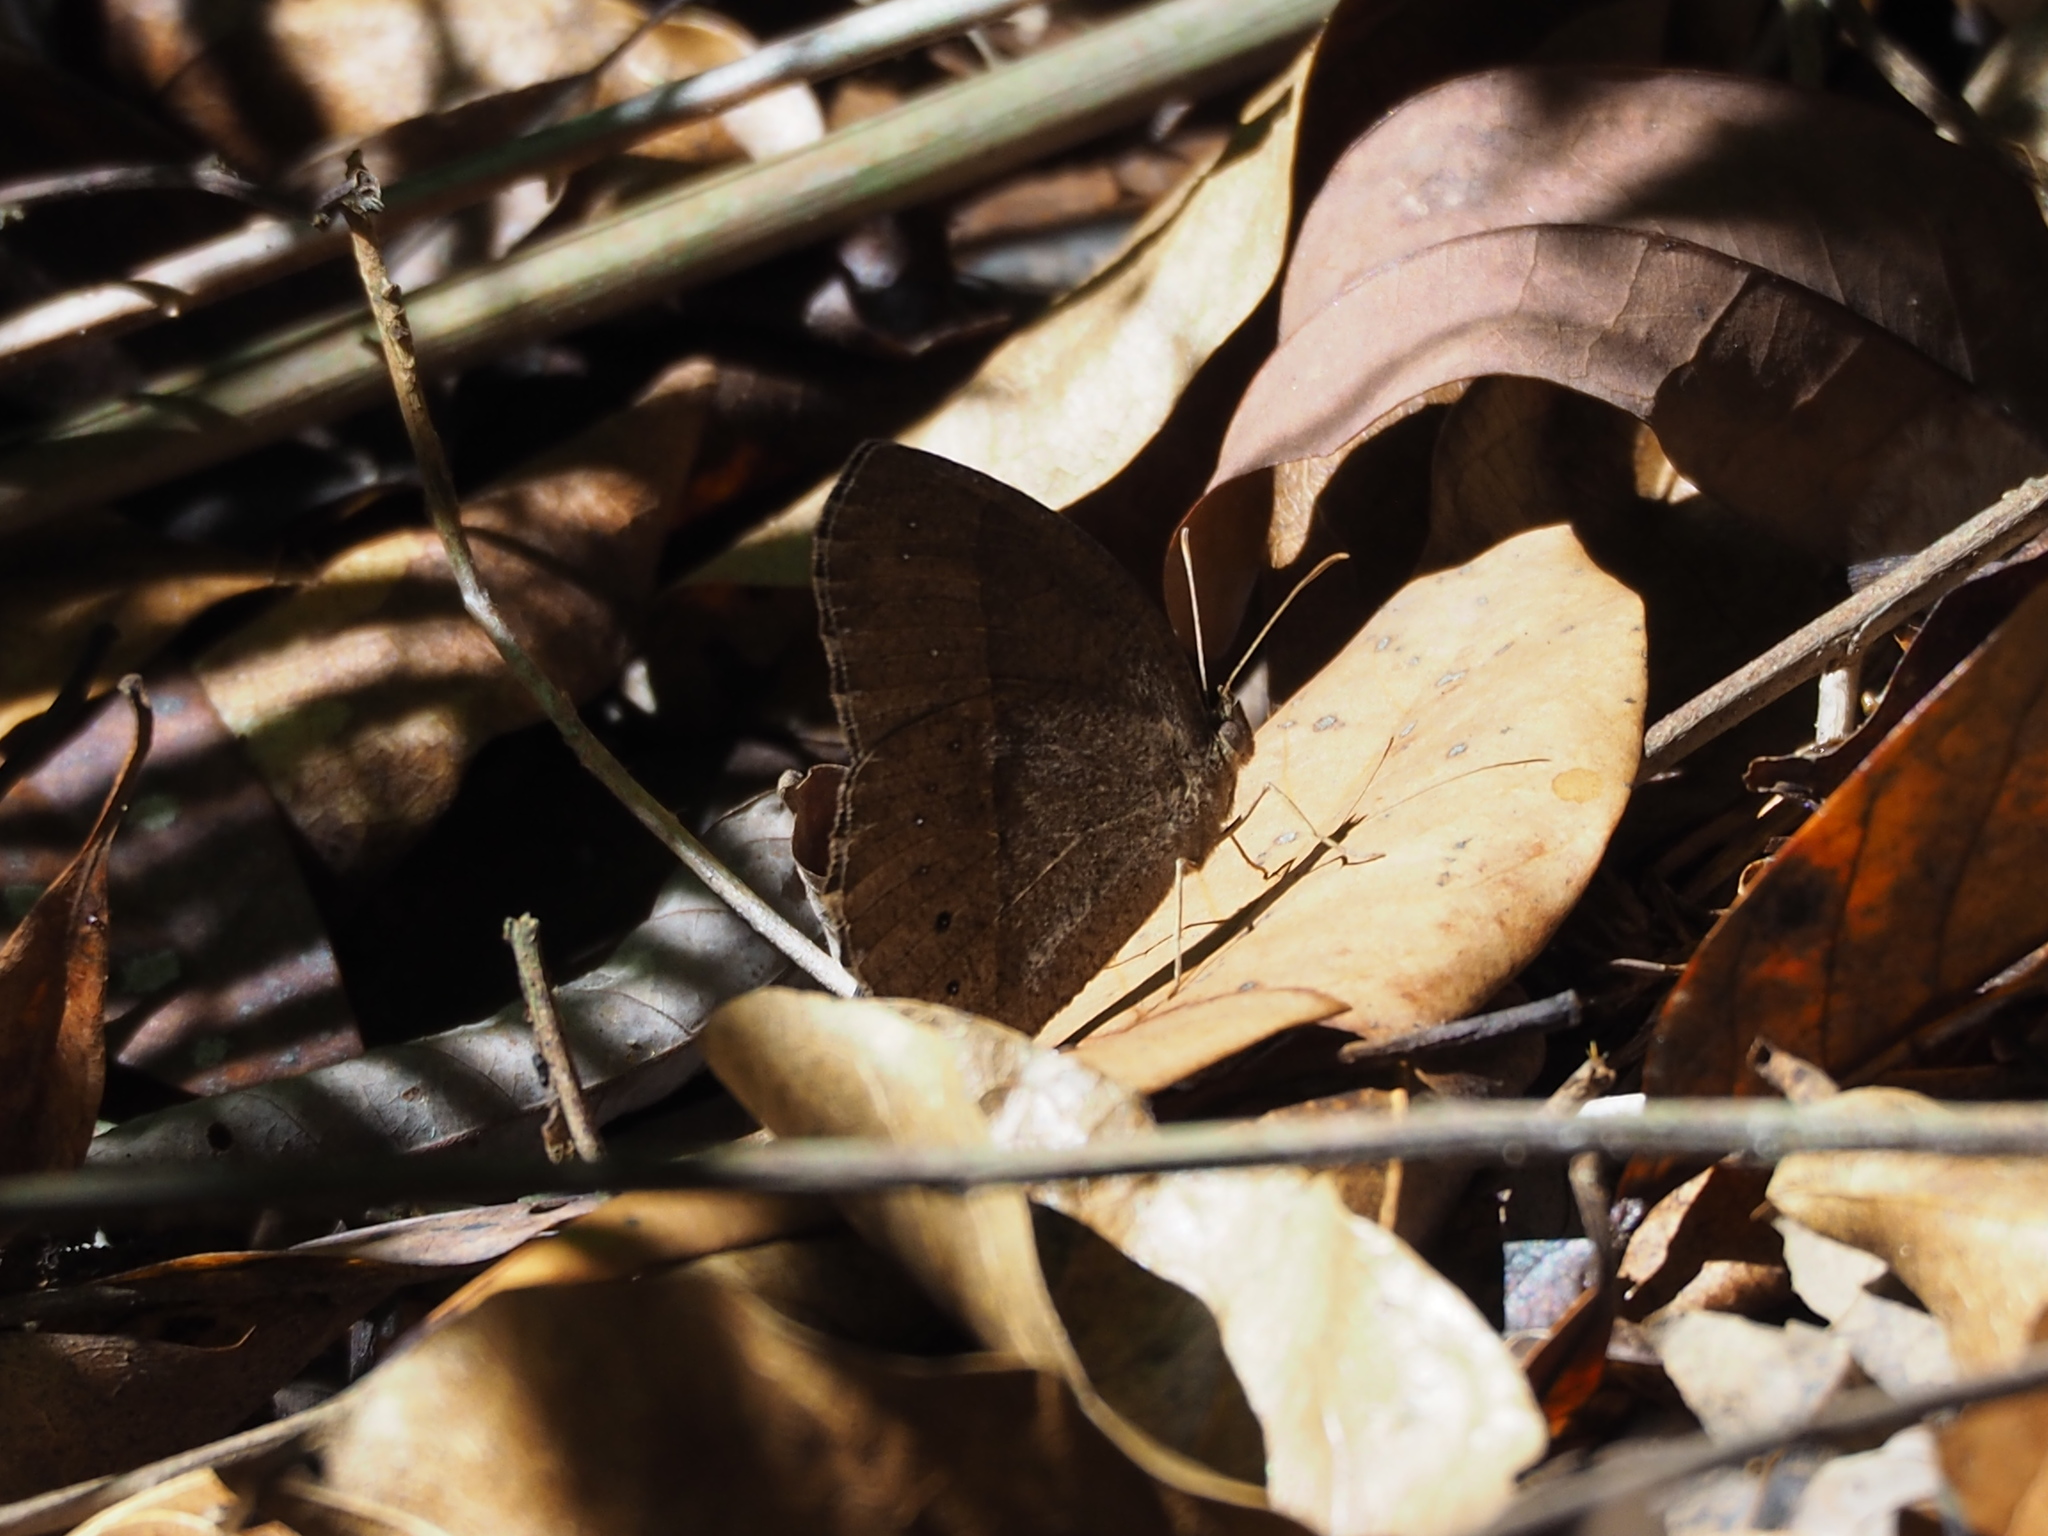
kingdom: Animalia
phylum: Arthropoda
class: Insecta
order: Lepidoptera
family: Nymphalidae
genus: Mycalesis
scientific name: Mycalesis horsfieldii
